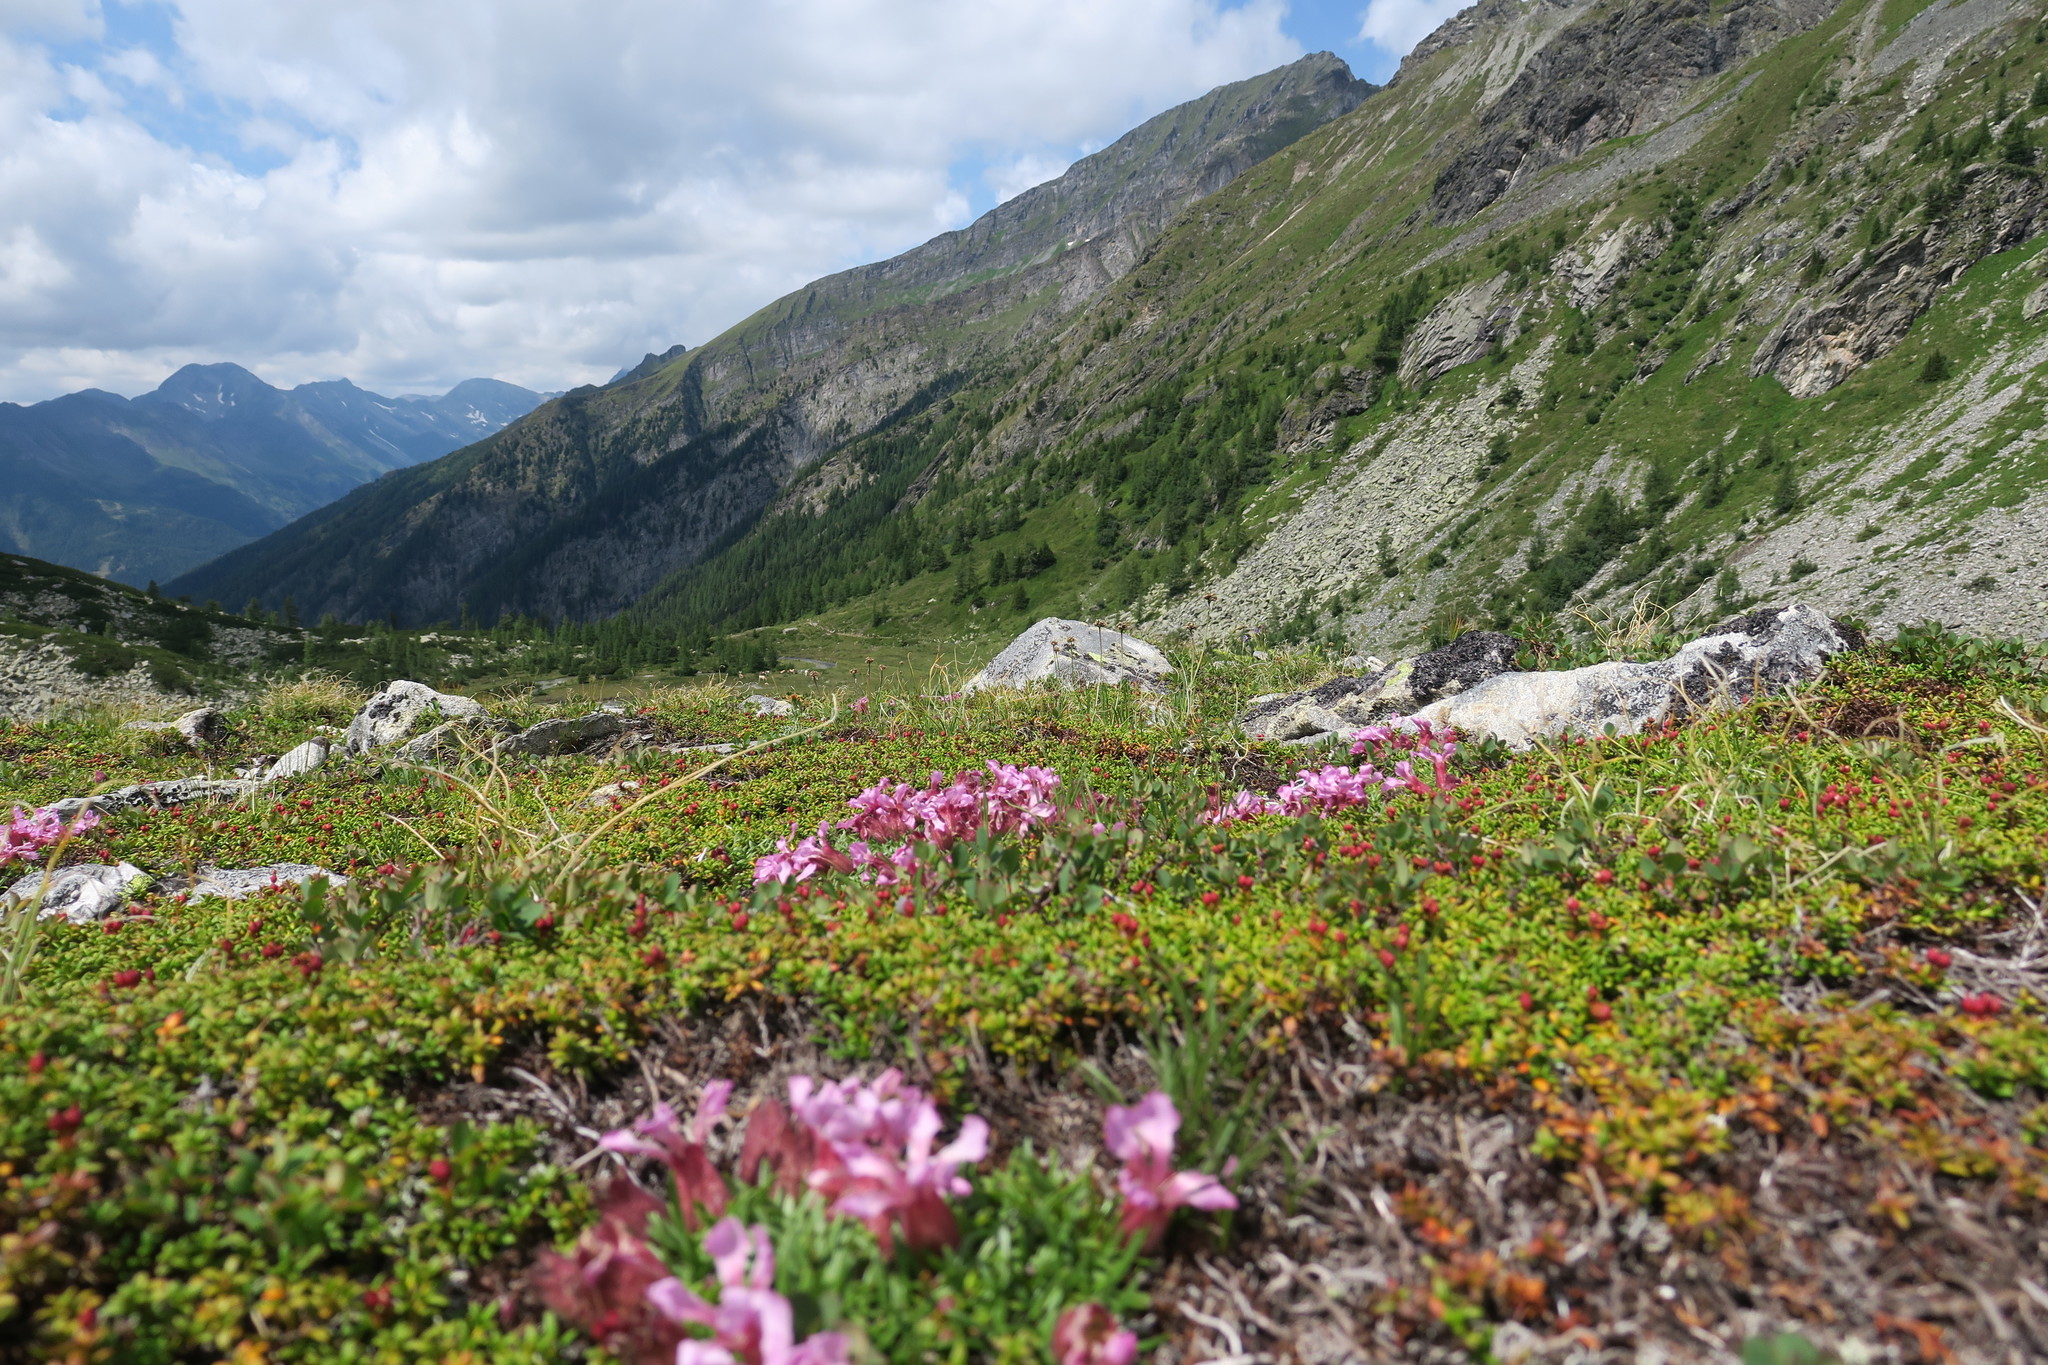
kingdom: Plantae
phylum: Tracheophyta
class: Magnoliopsida
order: Caryophyllales
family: Caryophyllaceae
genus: Saponaria
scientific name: Saponaria pumila
